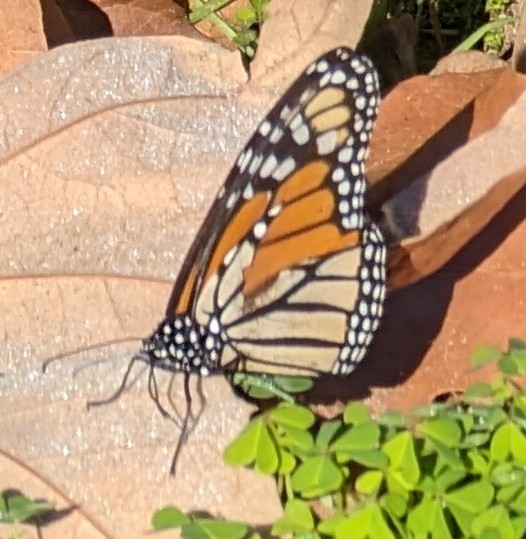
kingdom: Animalia
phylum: Arthropoda
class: Insecta
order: Lepidoptera
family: Nymphalidae
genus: Danaus
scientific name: Danaus plexippus
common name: Monarch
